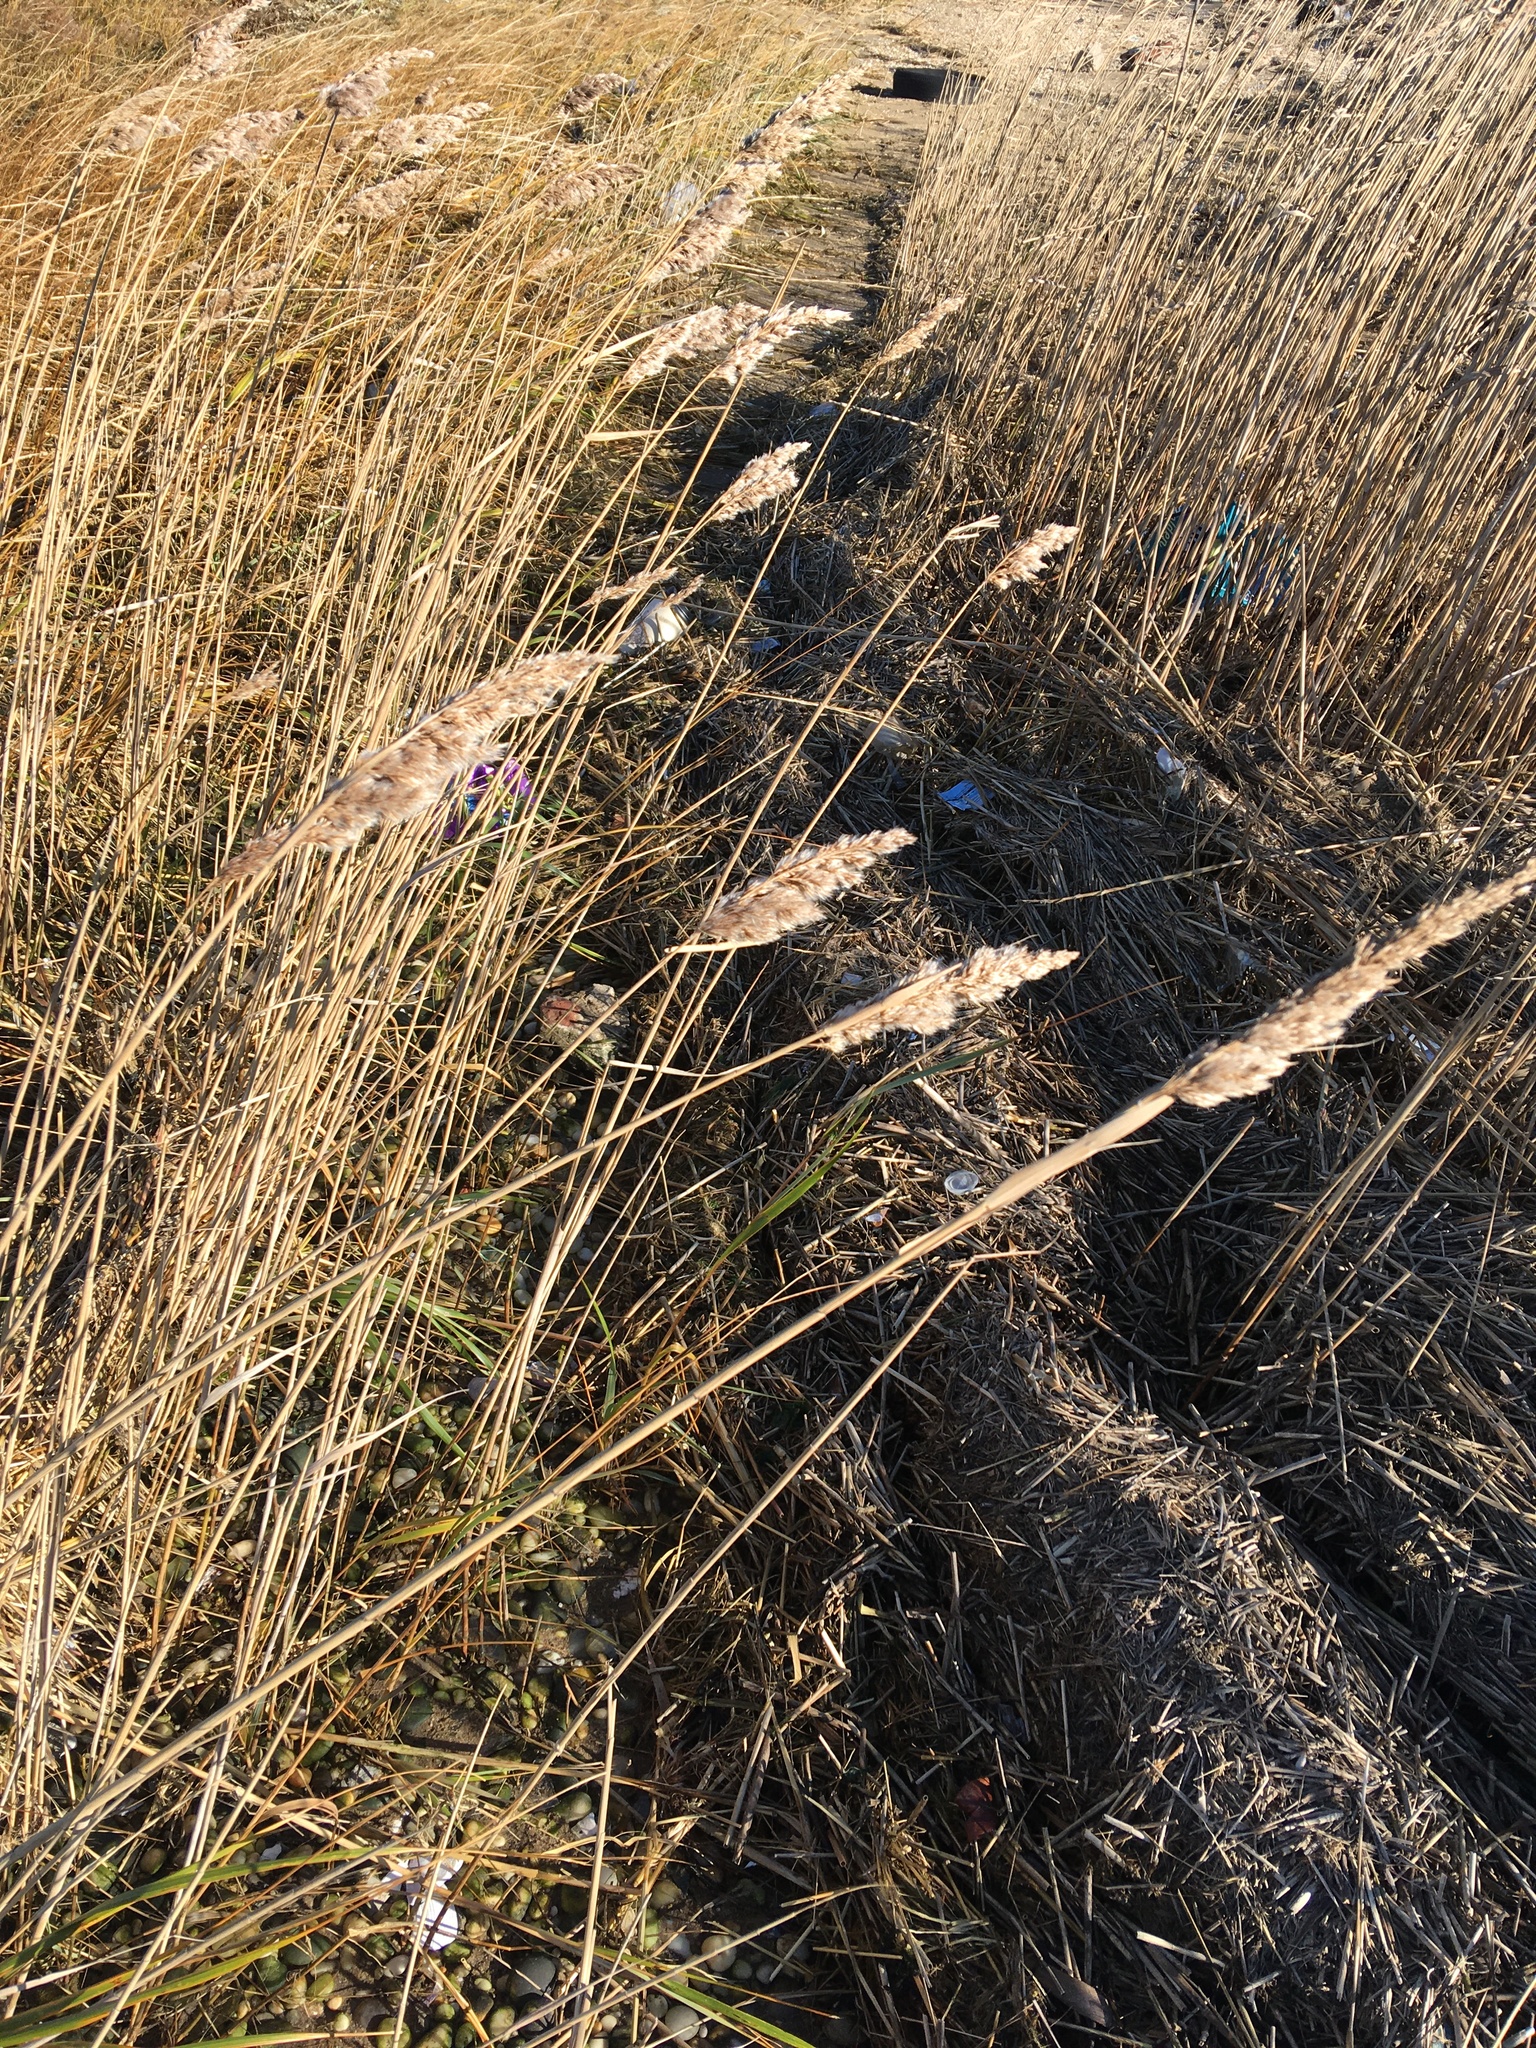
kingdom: Plantae
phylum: Tracheophyta
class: Liliopsida
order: Poales
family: Poaceae
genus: Phragmites
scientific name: Phragmites australis
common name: Common reed
